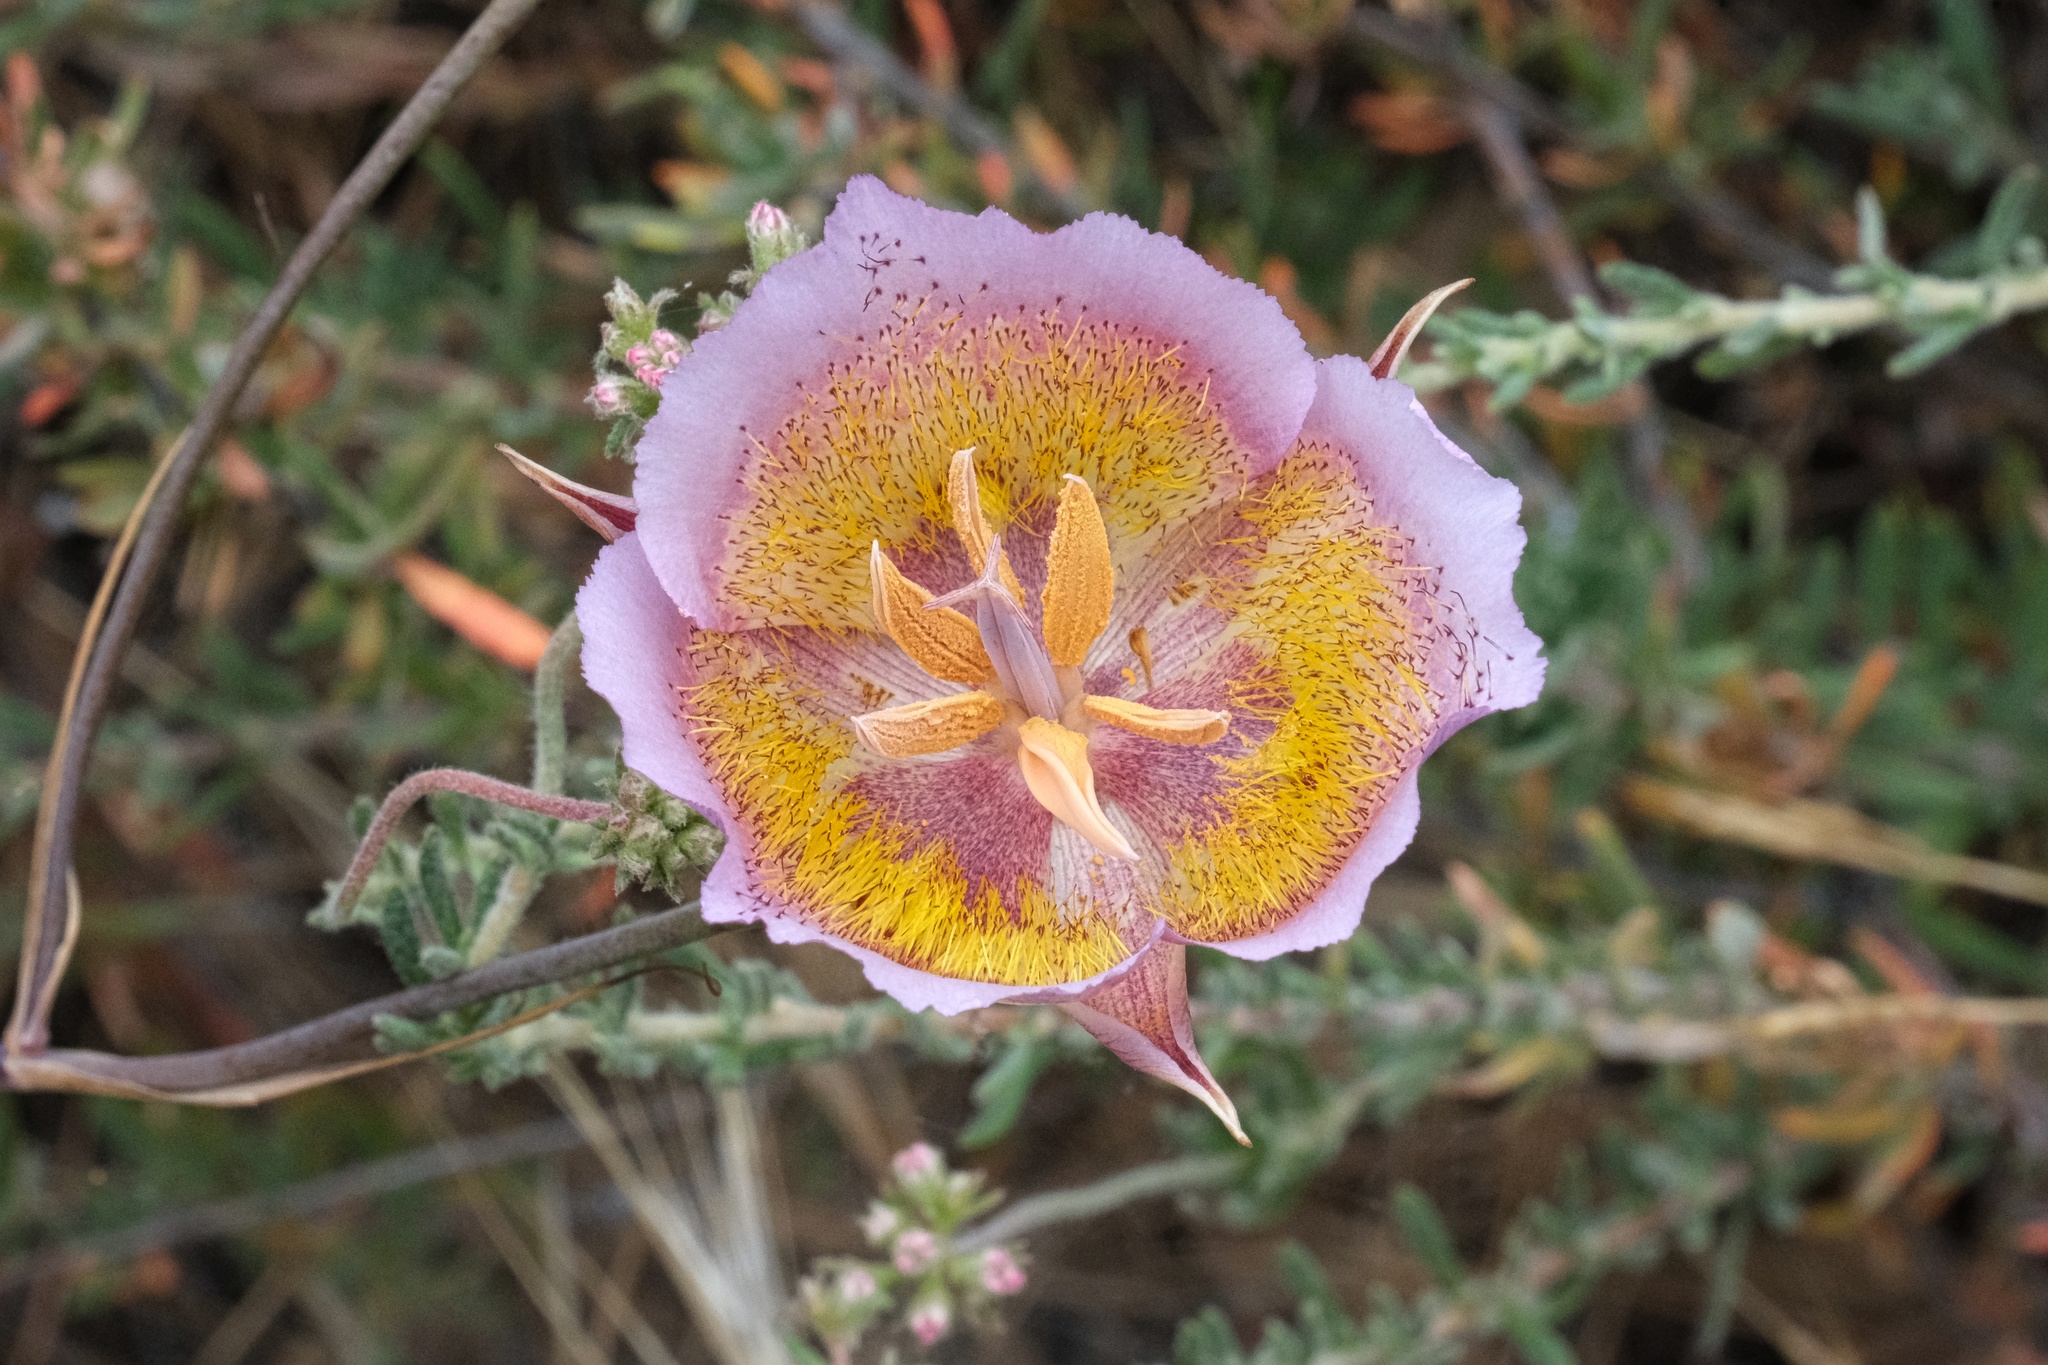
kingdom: Plantae
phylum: Tracheophyta
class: Liliopsida
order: Liliales
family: Liliaceae
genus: Calochortus
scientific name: Calochortus plummerae
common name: Plummer's mariposa-lily
